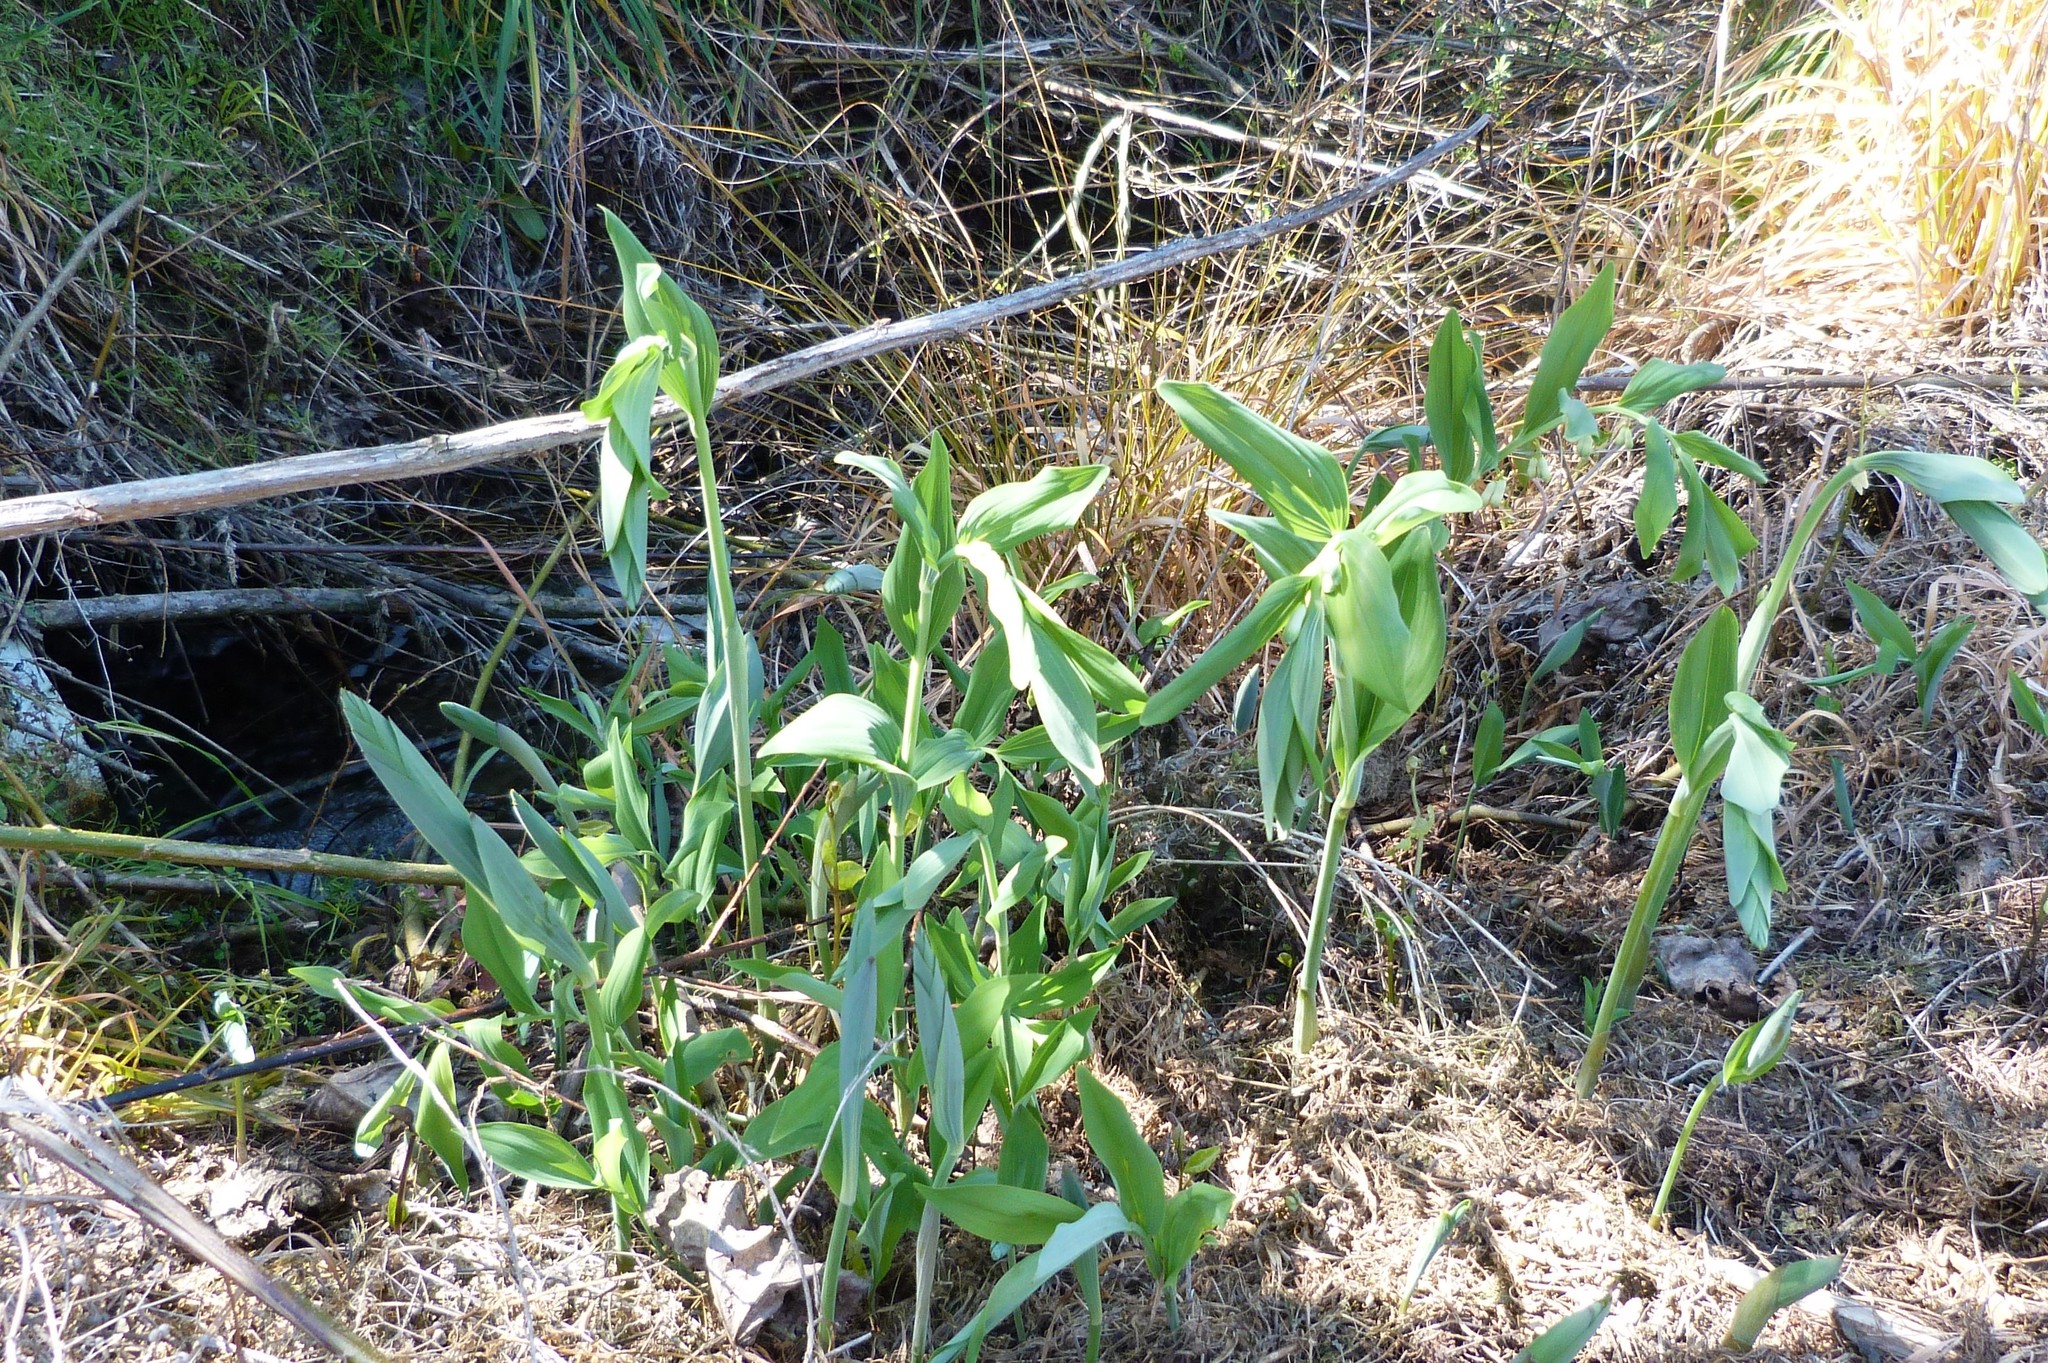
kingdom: Plantae
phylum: Tracheophyta
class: Liliopsida
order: Asparagales
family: Asparagaceae
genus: Polygonatum
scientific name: Polygonatum multiflorum
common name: Solomon's-seal
